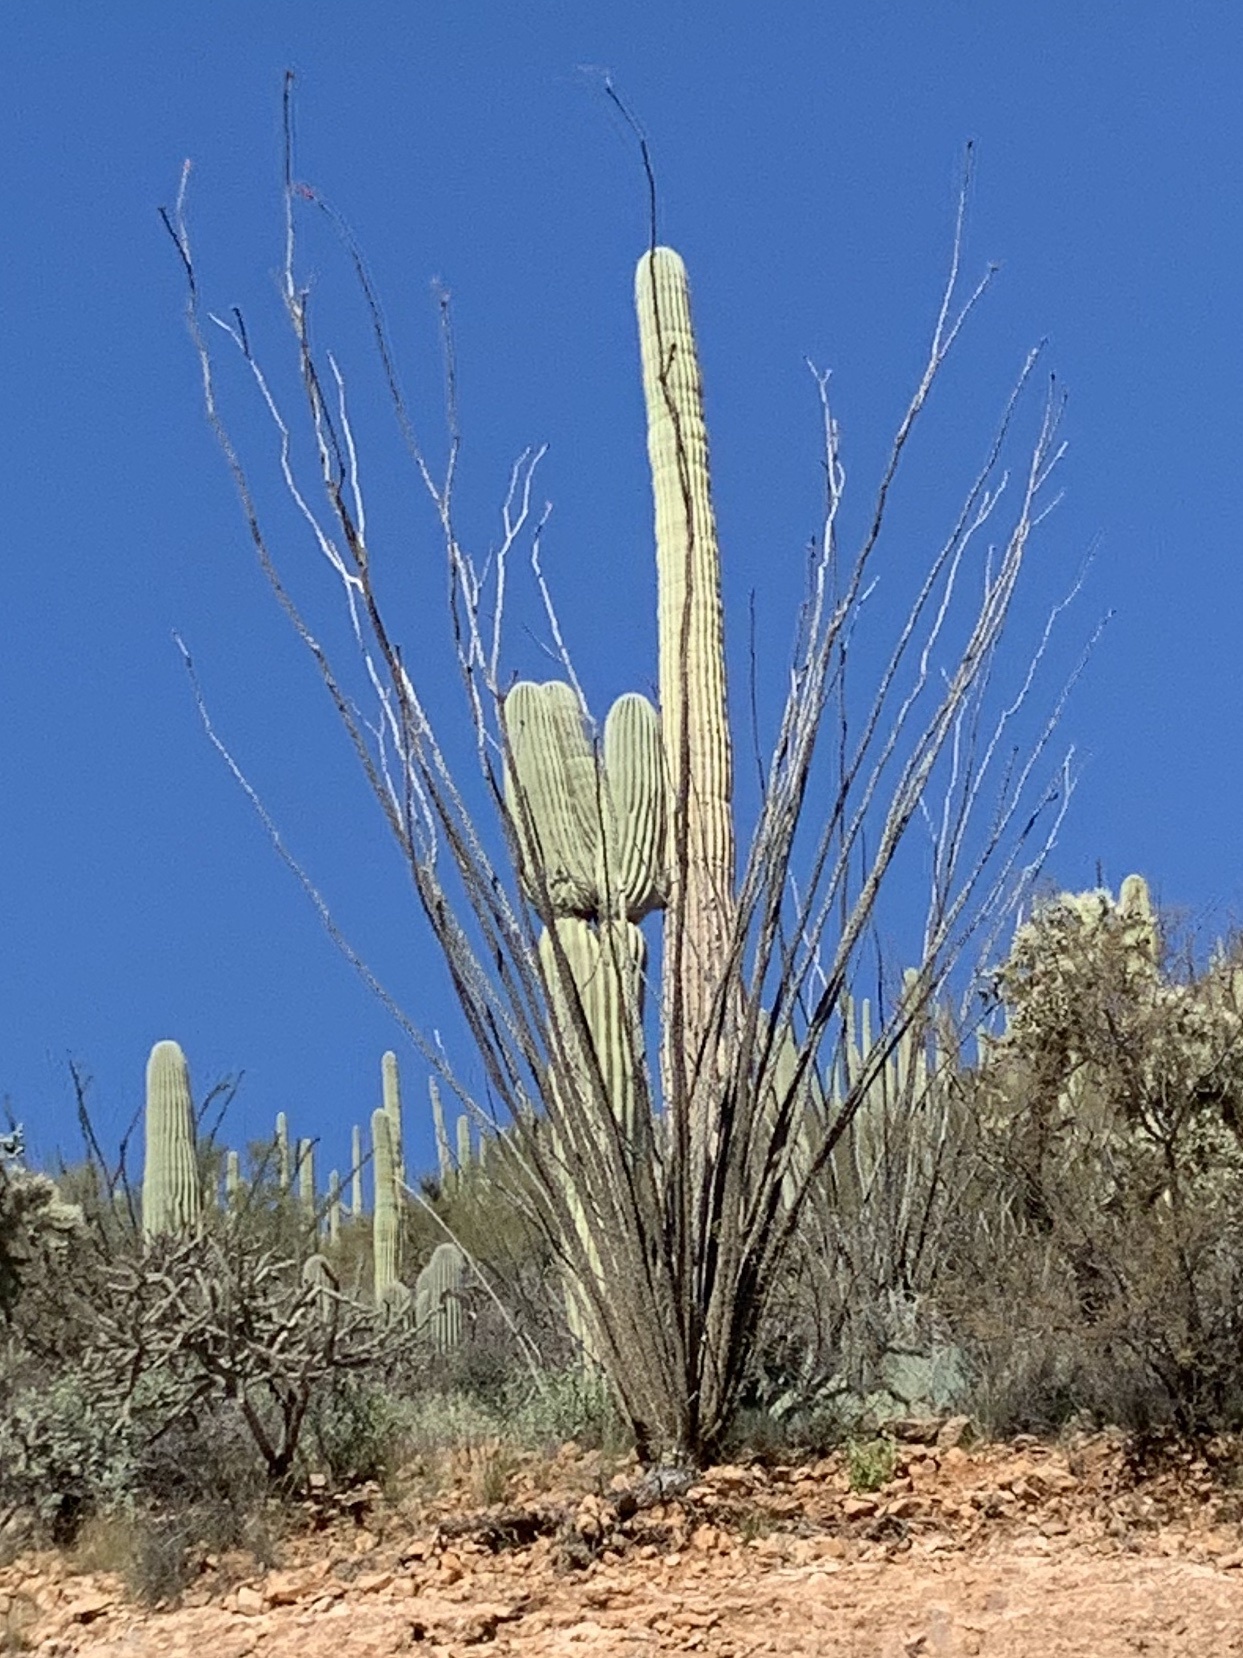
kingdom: Plantae
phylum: Tracheophyta
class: Magnoliopsida
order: Caryophyllales
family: Cactaceae
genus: Carnegiea
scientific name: Carnegiea gigantea
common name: Saguaro
